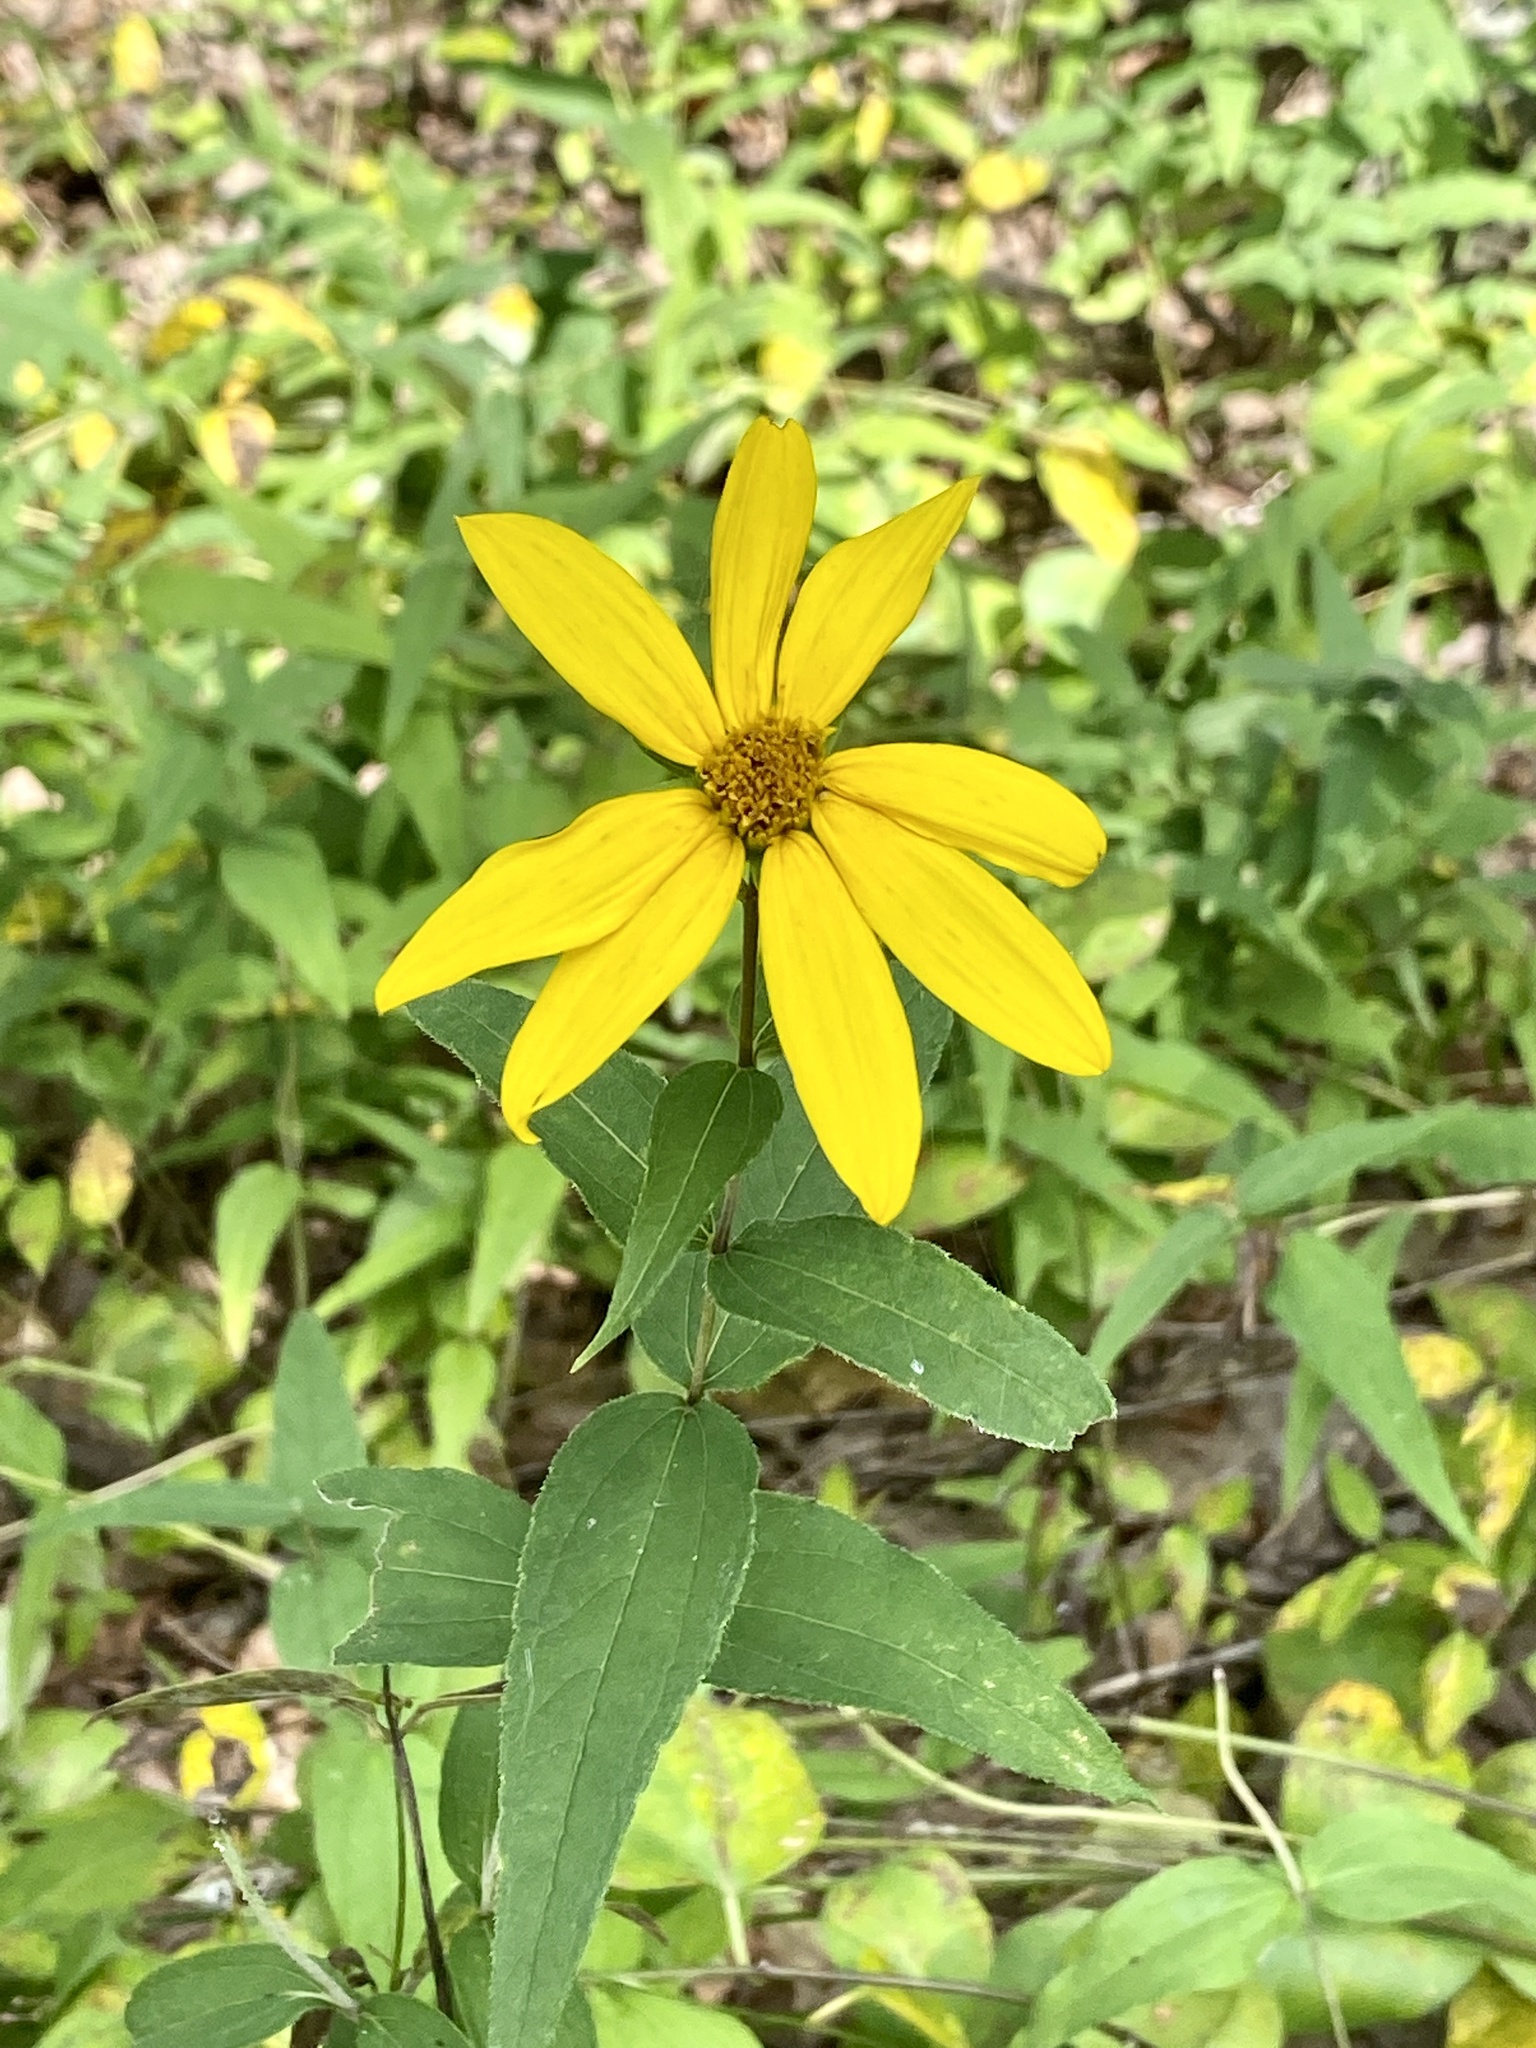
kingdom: Plantae
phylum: Tracheophyta
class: Magnoliopsida
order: Asterales
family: Asteraceae
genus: Helianthus
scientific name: Helianthus divaricatus
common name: Divergent sunflower
